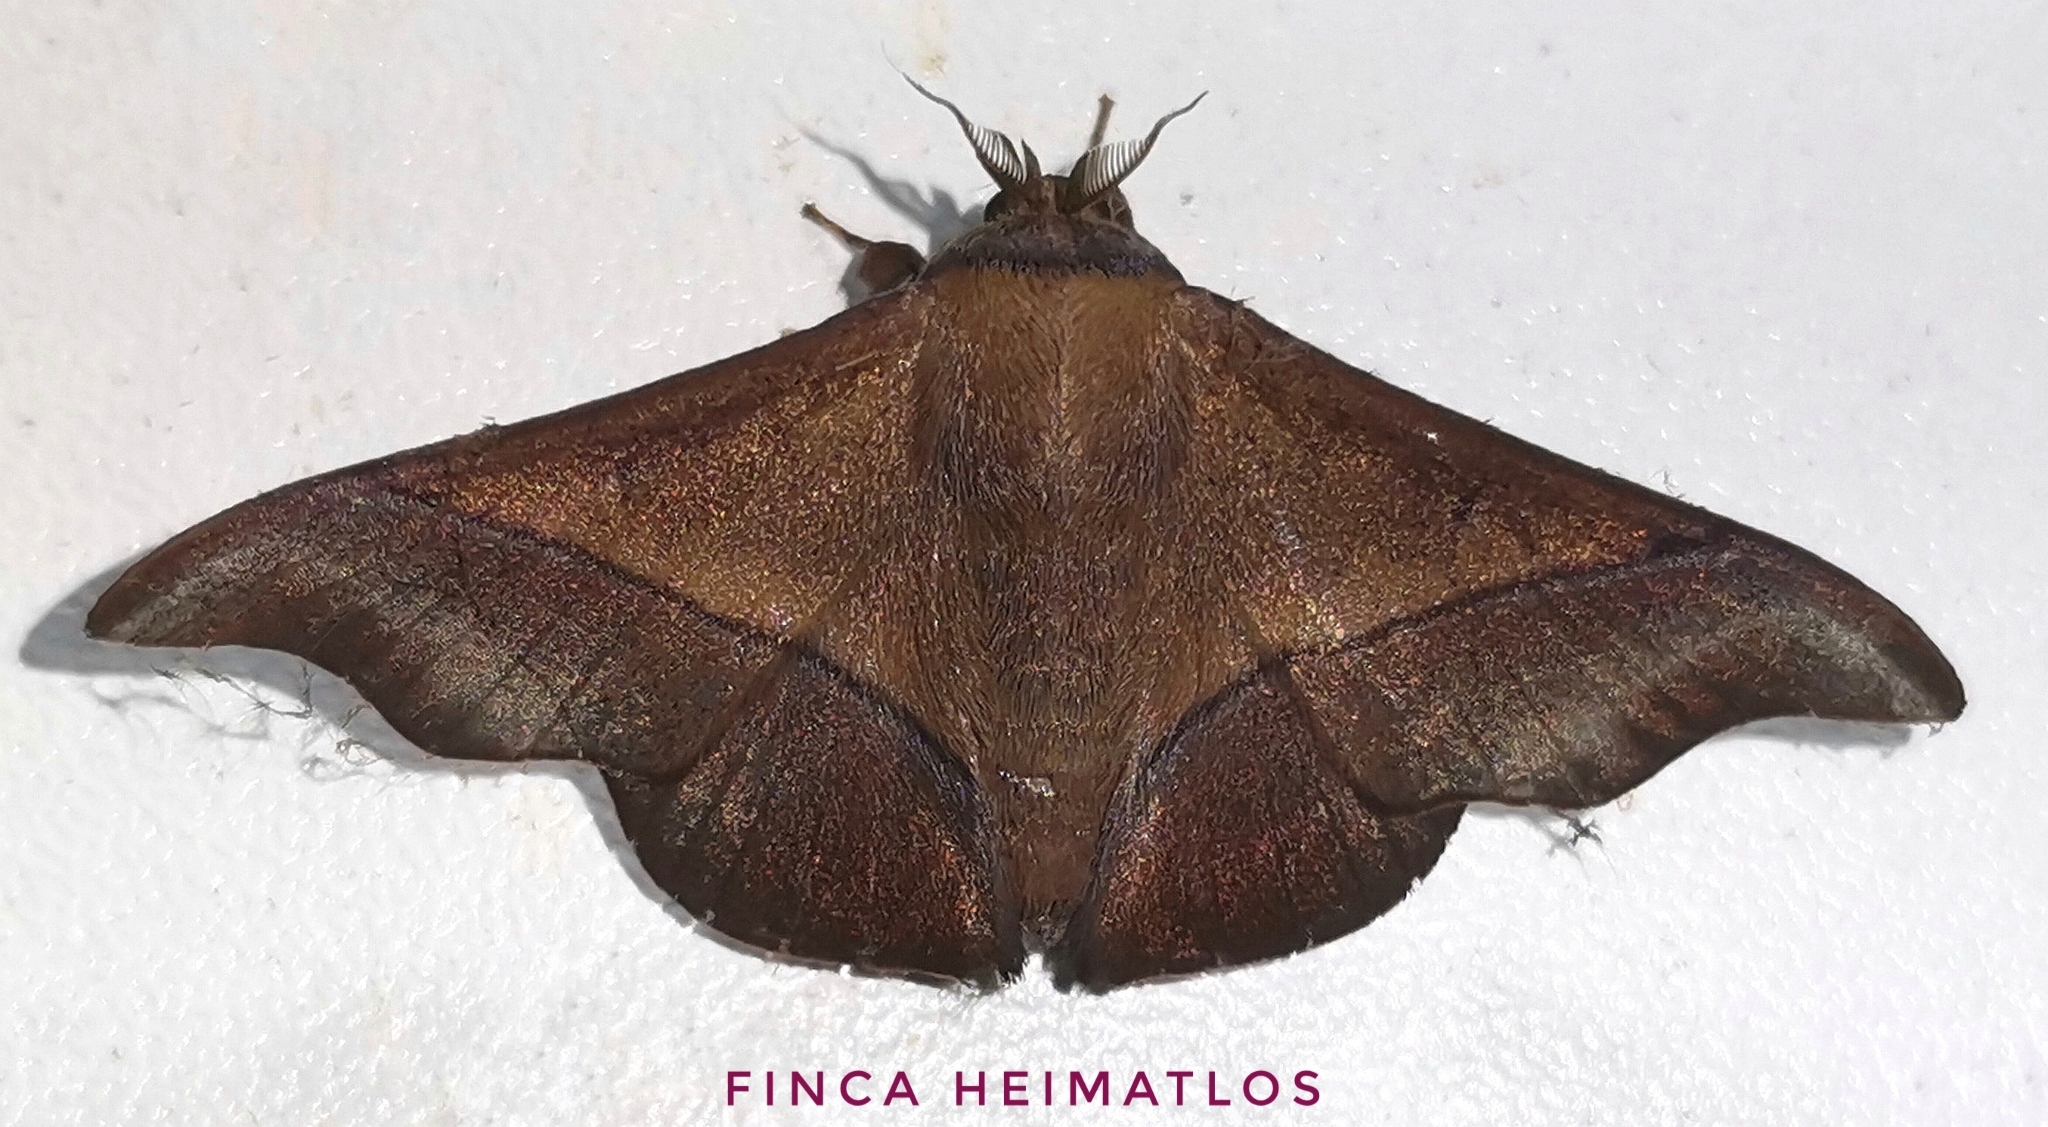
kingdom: Animalia
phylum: Arthropoda
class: Insecta
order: Lepidoptera
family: Mimallonidae
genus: Alheita
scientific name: Alheita subnotata
